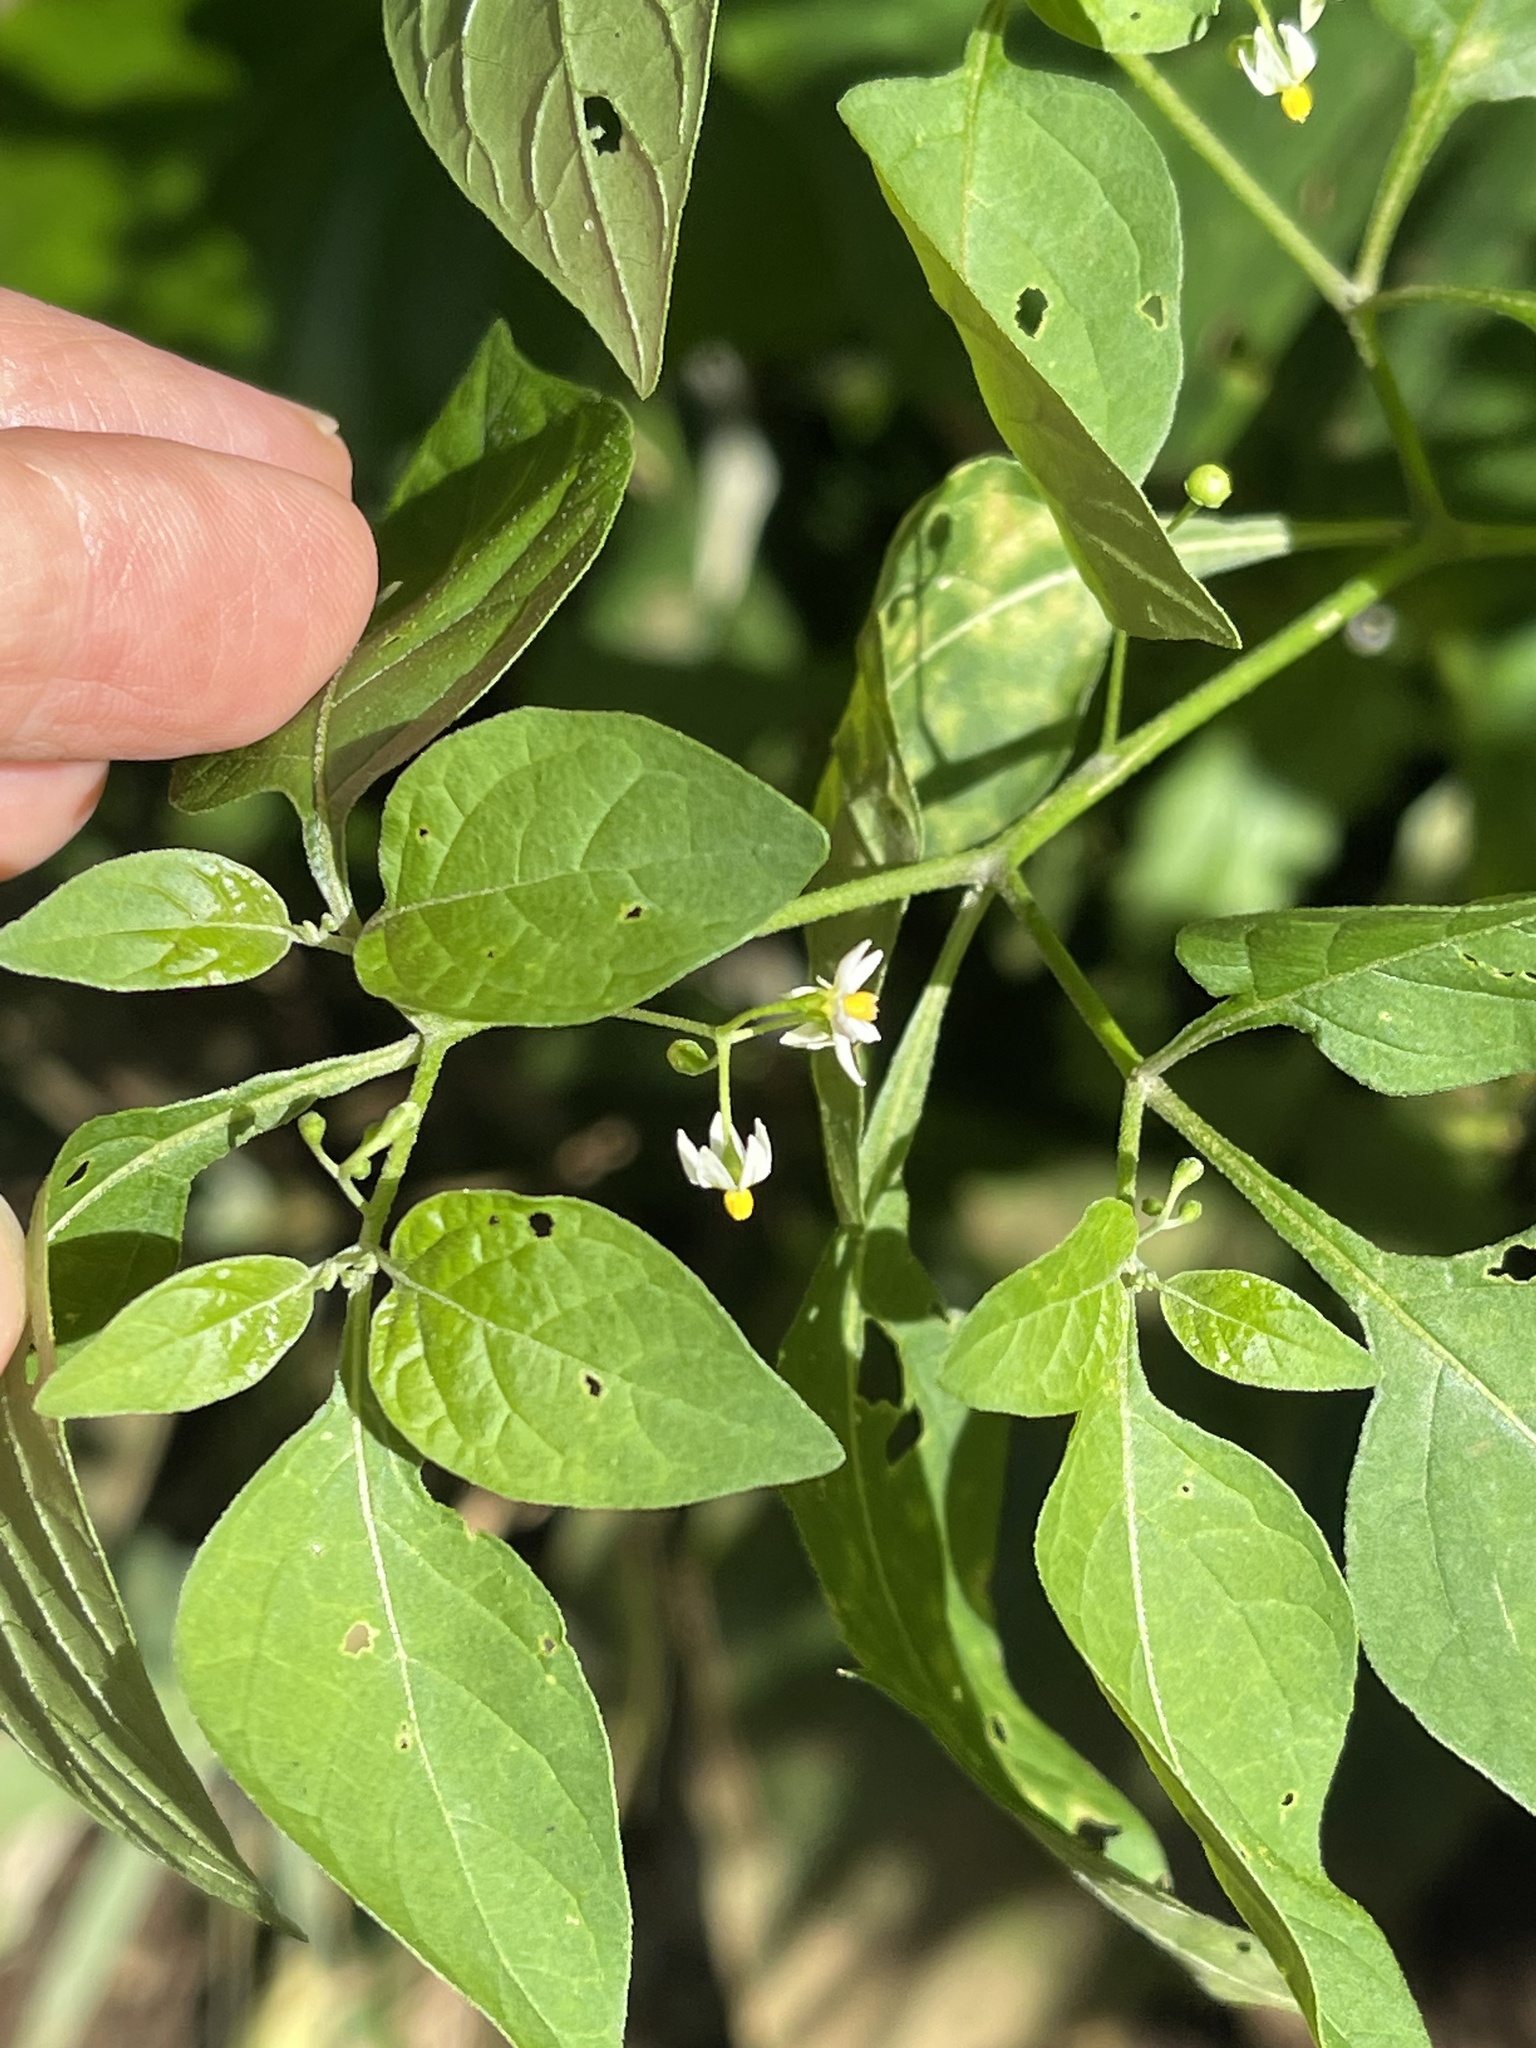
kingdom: Plantae
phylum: Tracheophyta
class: Magnoliopsida
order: Solanales
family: Solanaceae
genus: Solanum
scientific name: Solanum americanum
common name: American black nightshade
